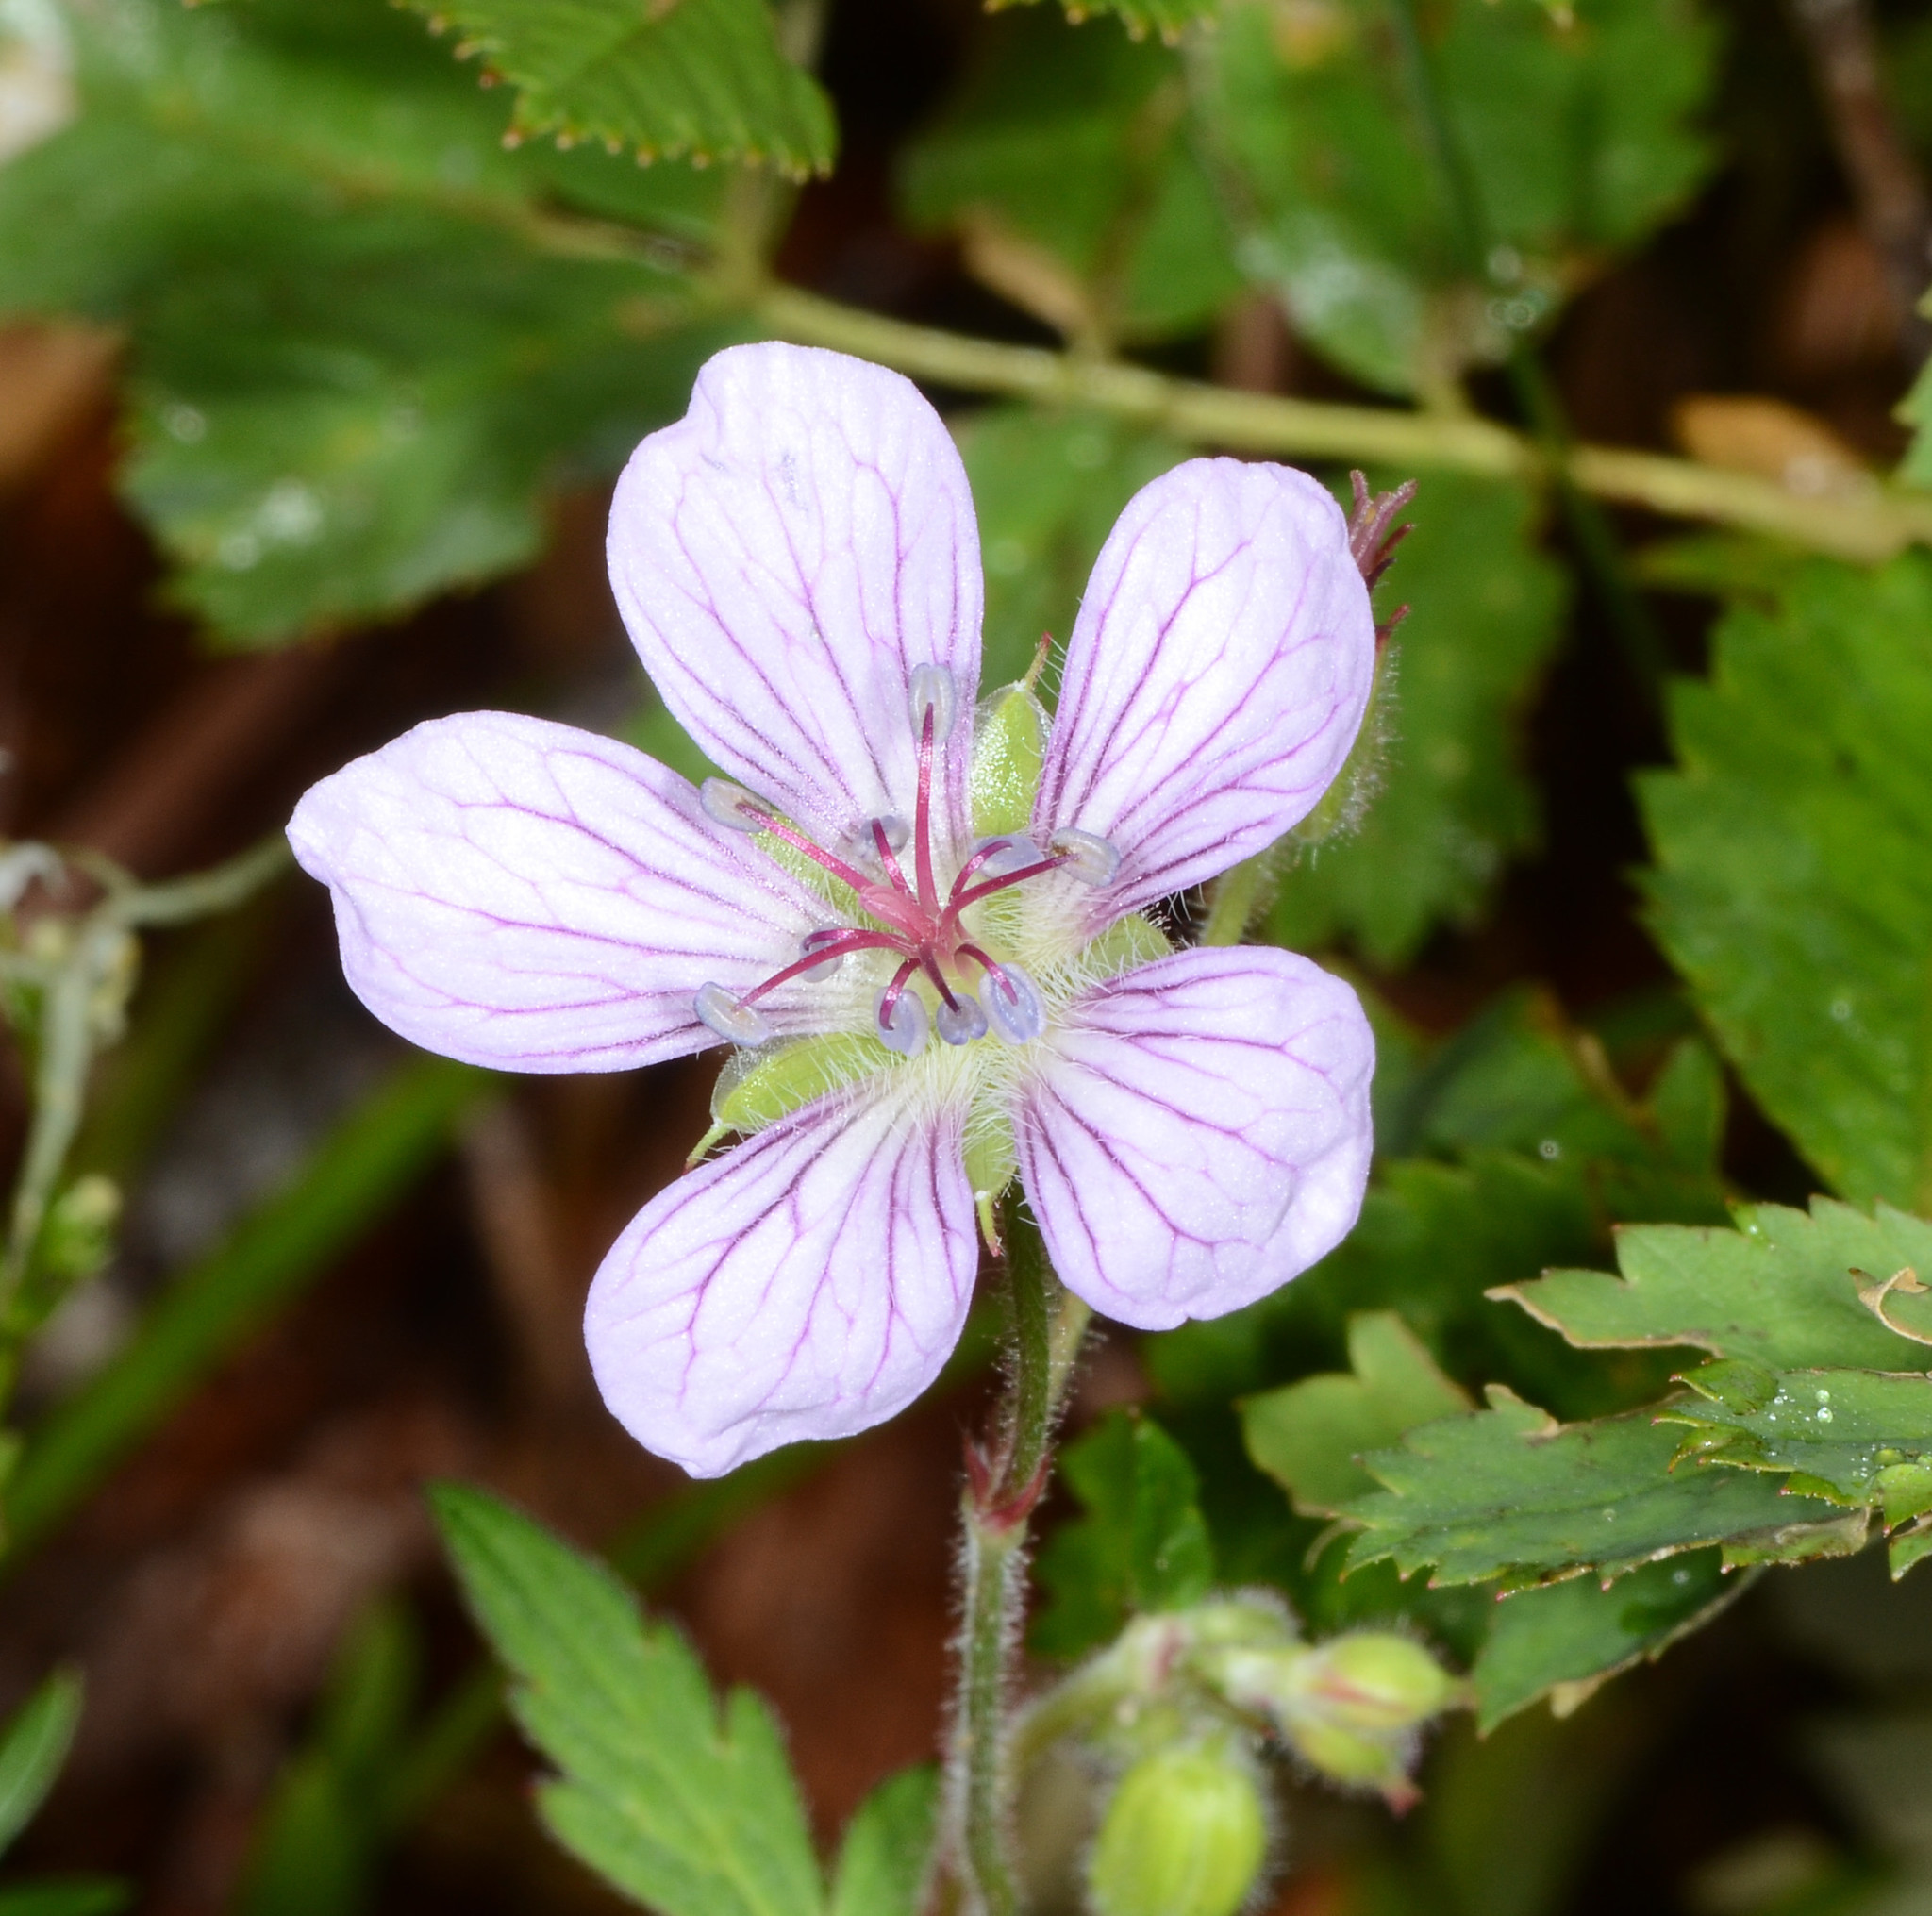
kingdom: Plantae
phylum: Tracheophyta
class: Magnoliopsida
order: Geraniales
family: Geraniaceae
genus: Geranium
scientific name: Geranium richardsonii
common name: Richardson's crane's-bill
